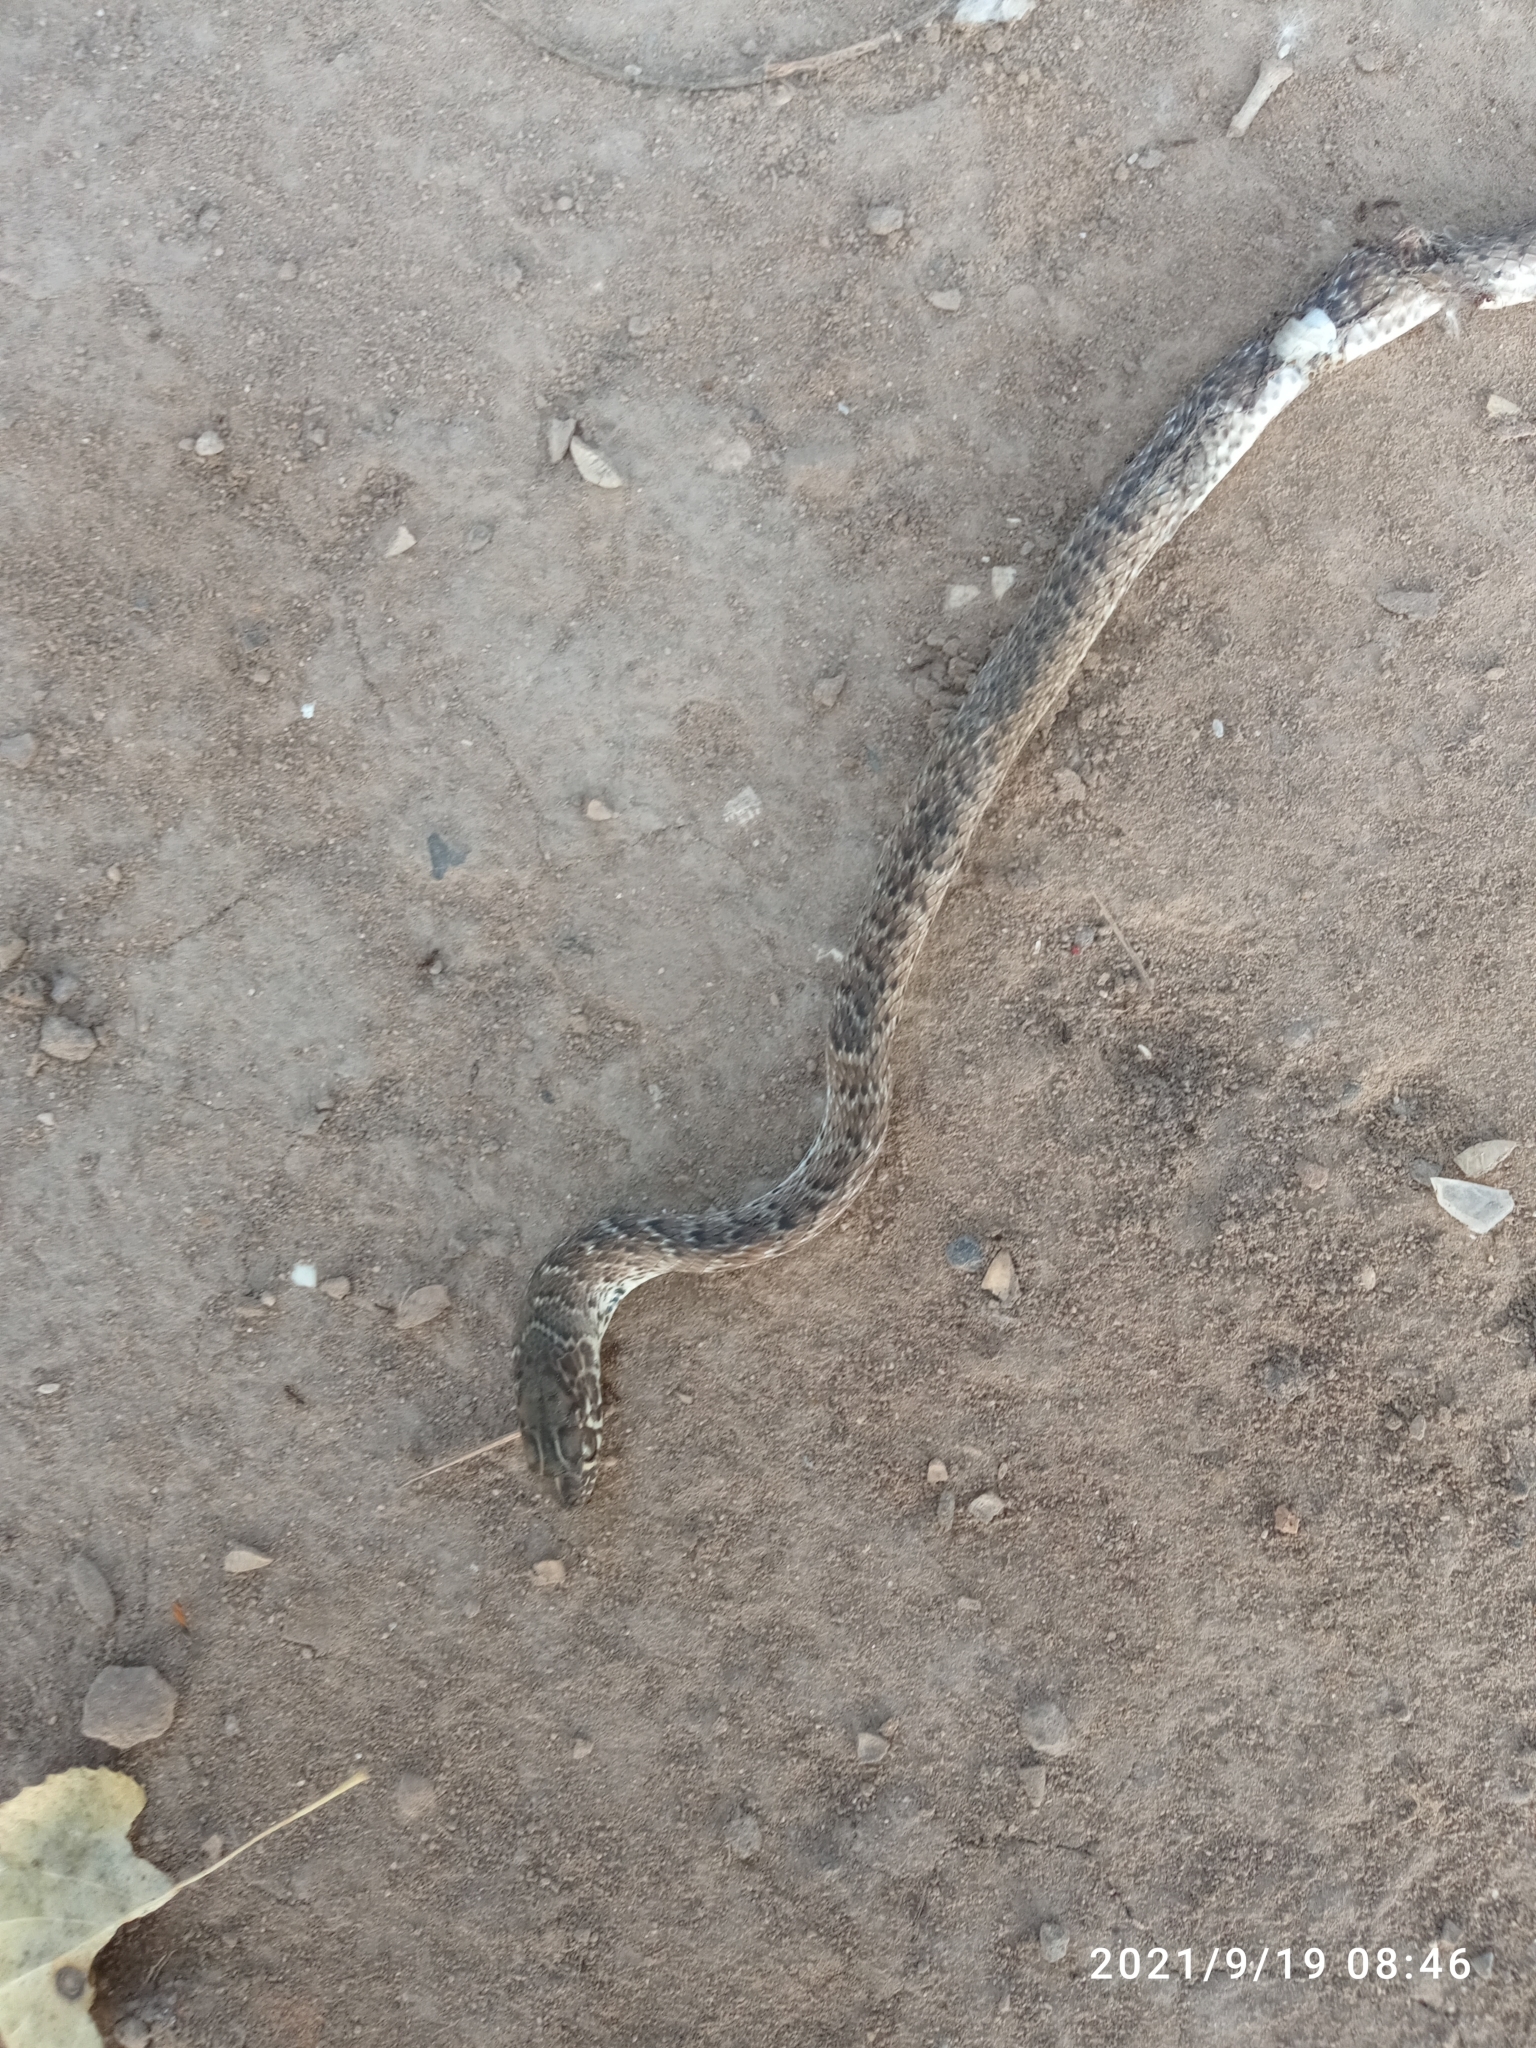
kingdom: Animalia
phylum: Chordata
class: Squamata
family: Colubridae
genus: Masticophis
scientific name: Masticophis flagellum
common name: Coachwhip
